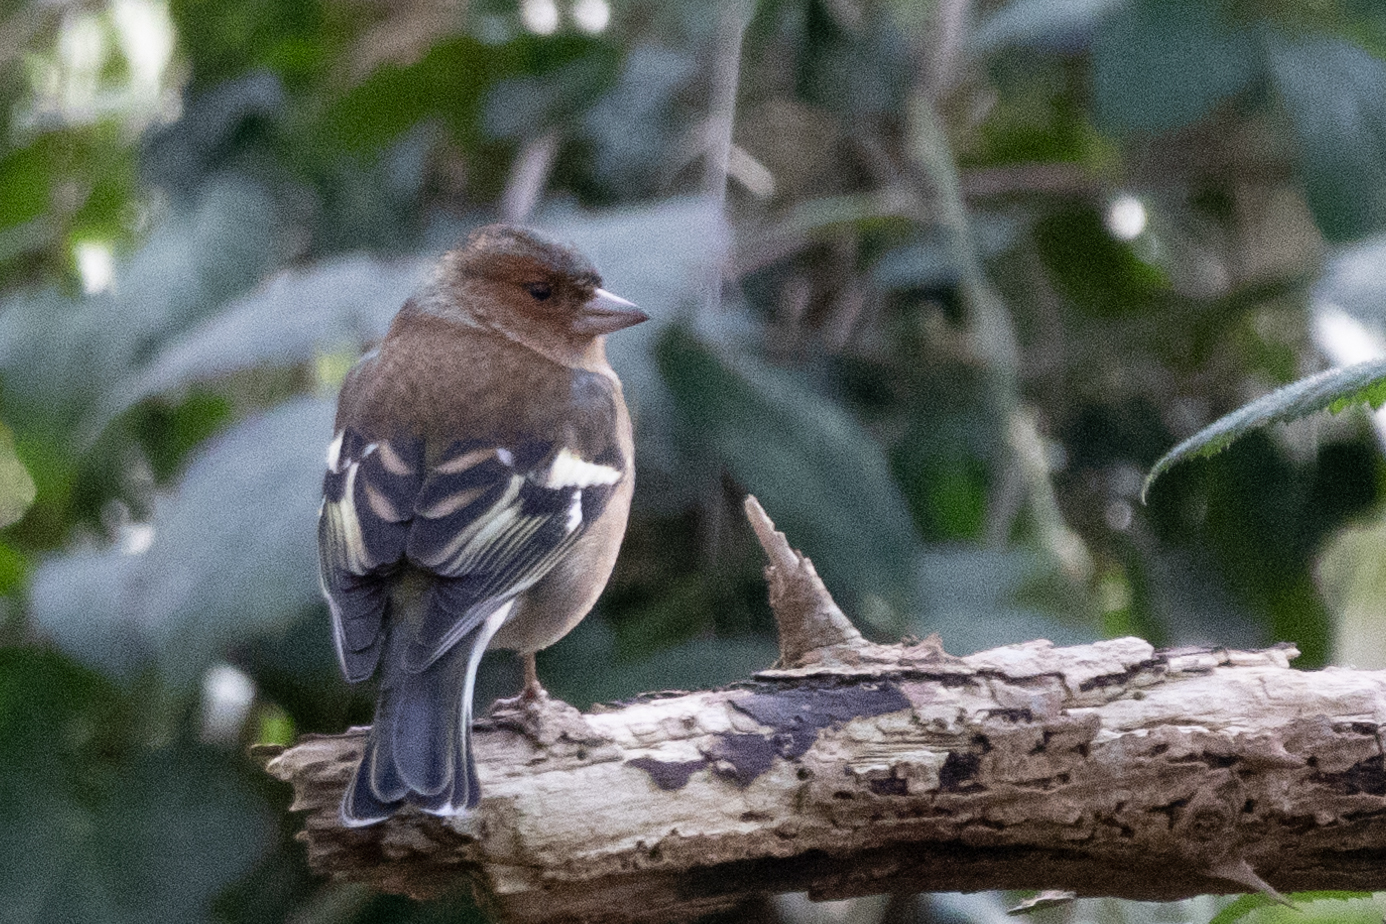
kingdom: Animalia
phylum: Chordata
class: Aves
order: Passeriformes
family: Fringillidae
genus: Fringilla
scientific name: Fringilla coelebs
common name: Common chaffinch
